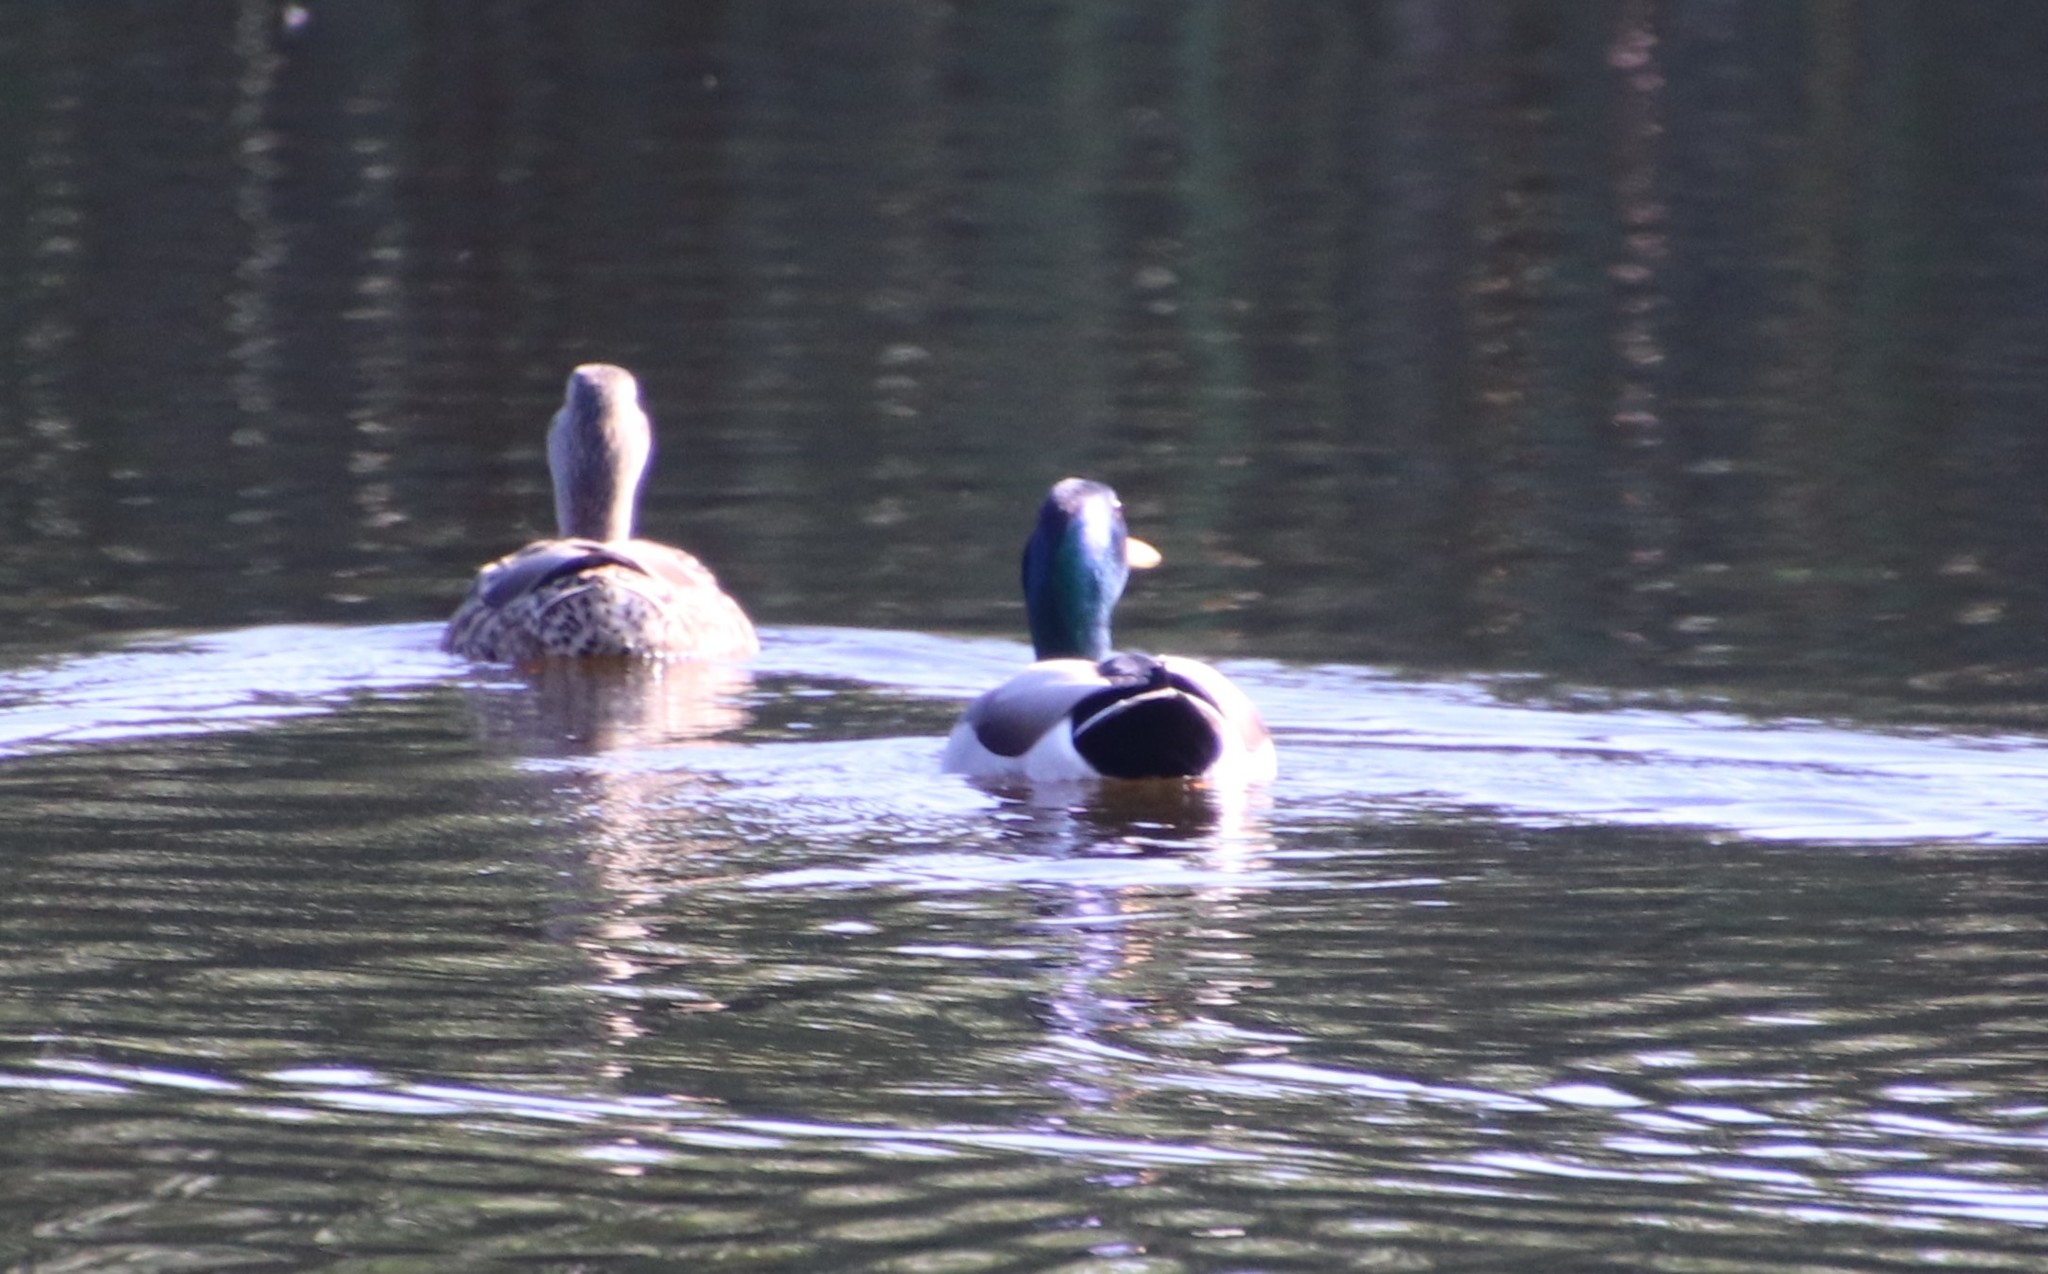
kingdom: Animalia
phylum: Chordata
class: Aves
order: Anseriformes
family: Anatidae
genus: Anas
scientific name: Anas platyrhynchos
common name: Mallard
